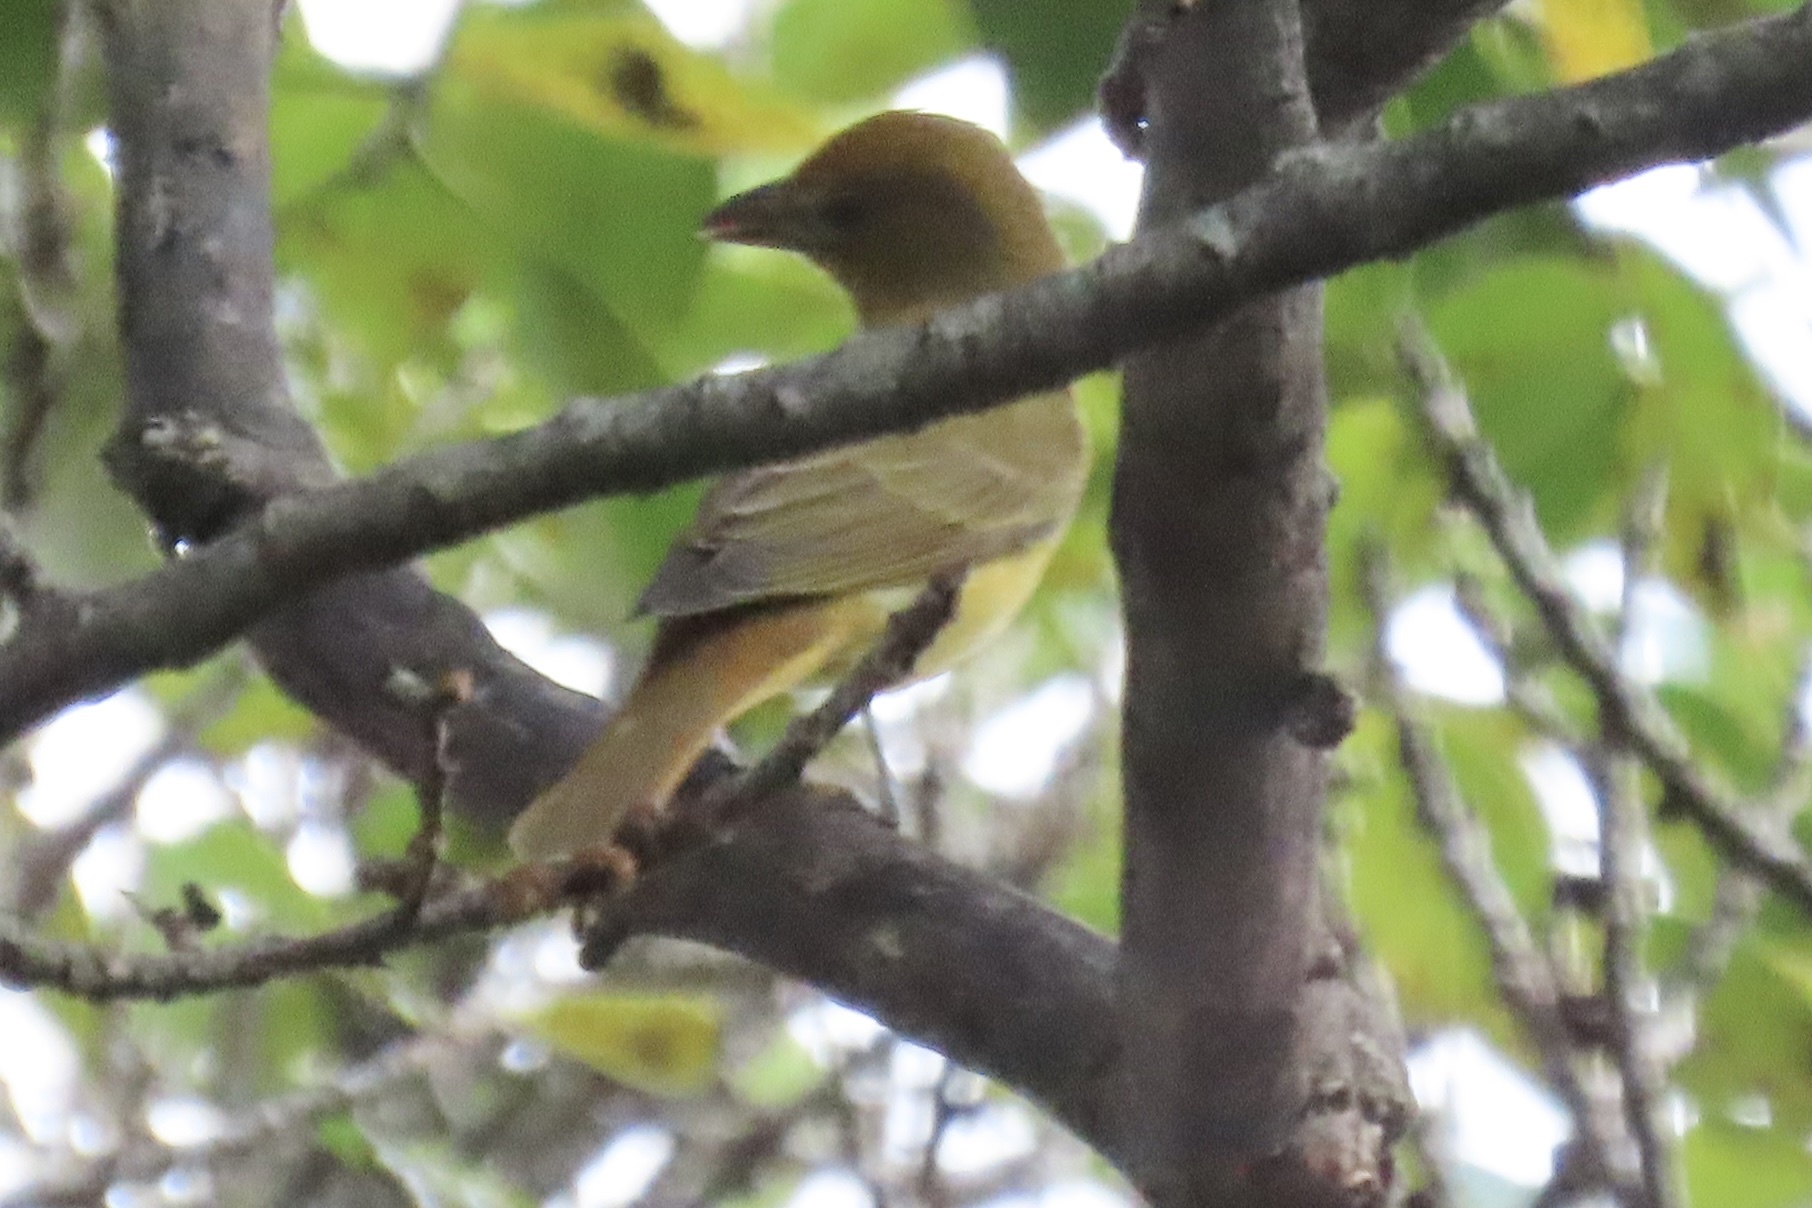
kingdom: Animalia
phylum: Chordata
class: Aves
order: Passeriformes
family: Cardinalidae
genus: Piranga
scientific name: Piranga rubra
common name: Summer tanager
